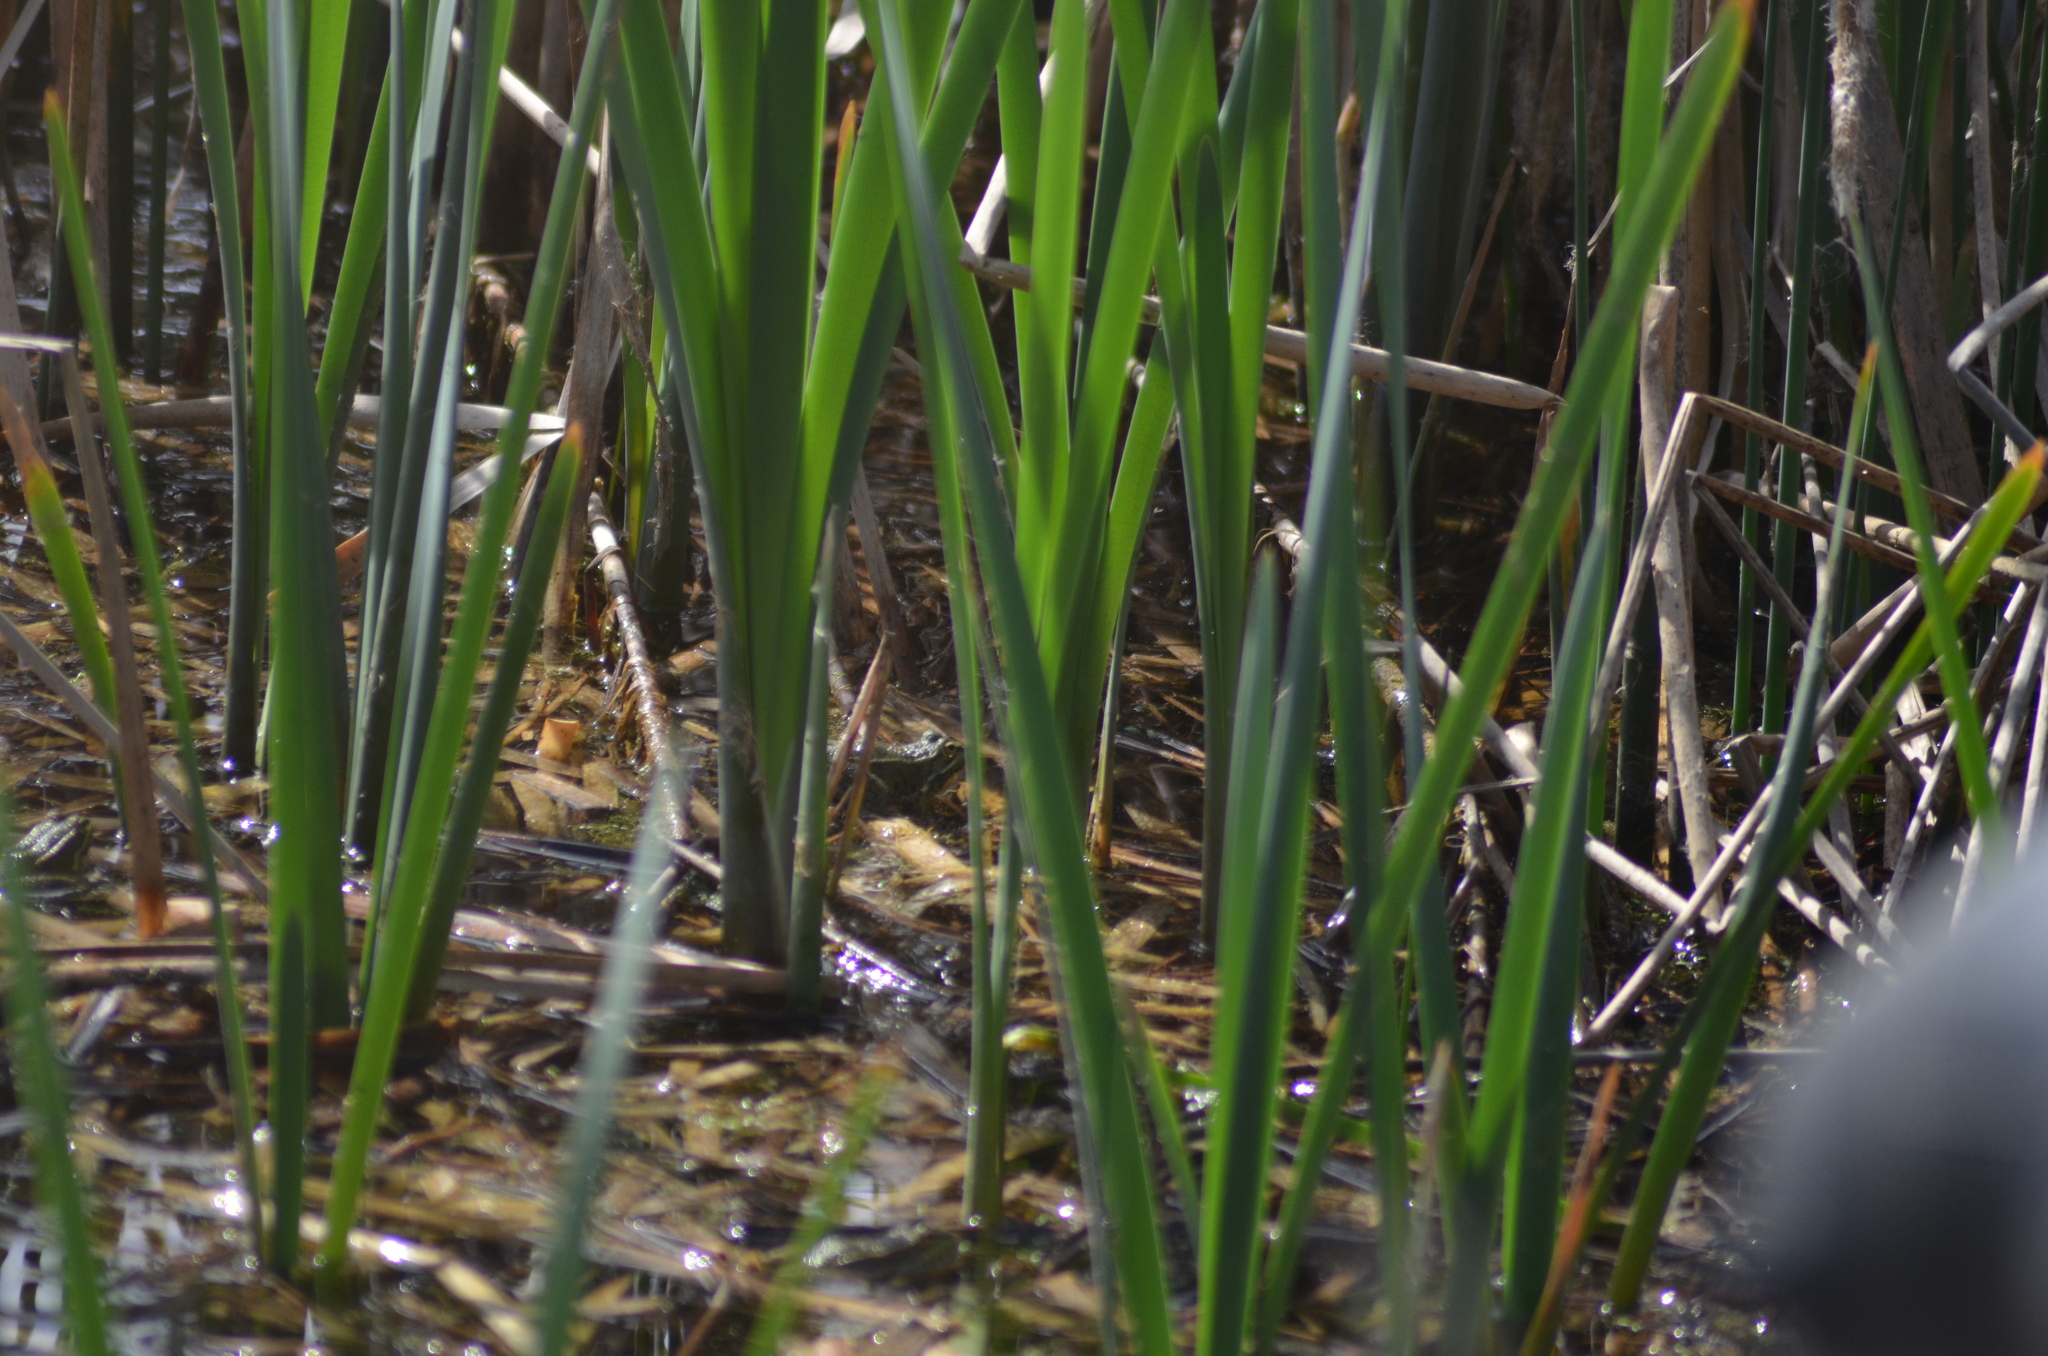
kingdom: Animalia
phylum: Chordata
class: Amphibia
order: Anura
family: Ranidae
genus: Pelophylax
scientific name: Pelophylax perezi
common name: Perez's frog
